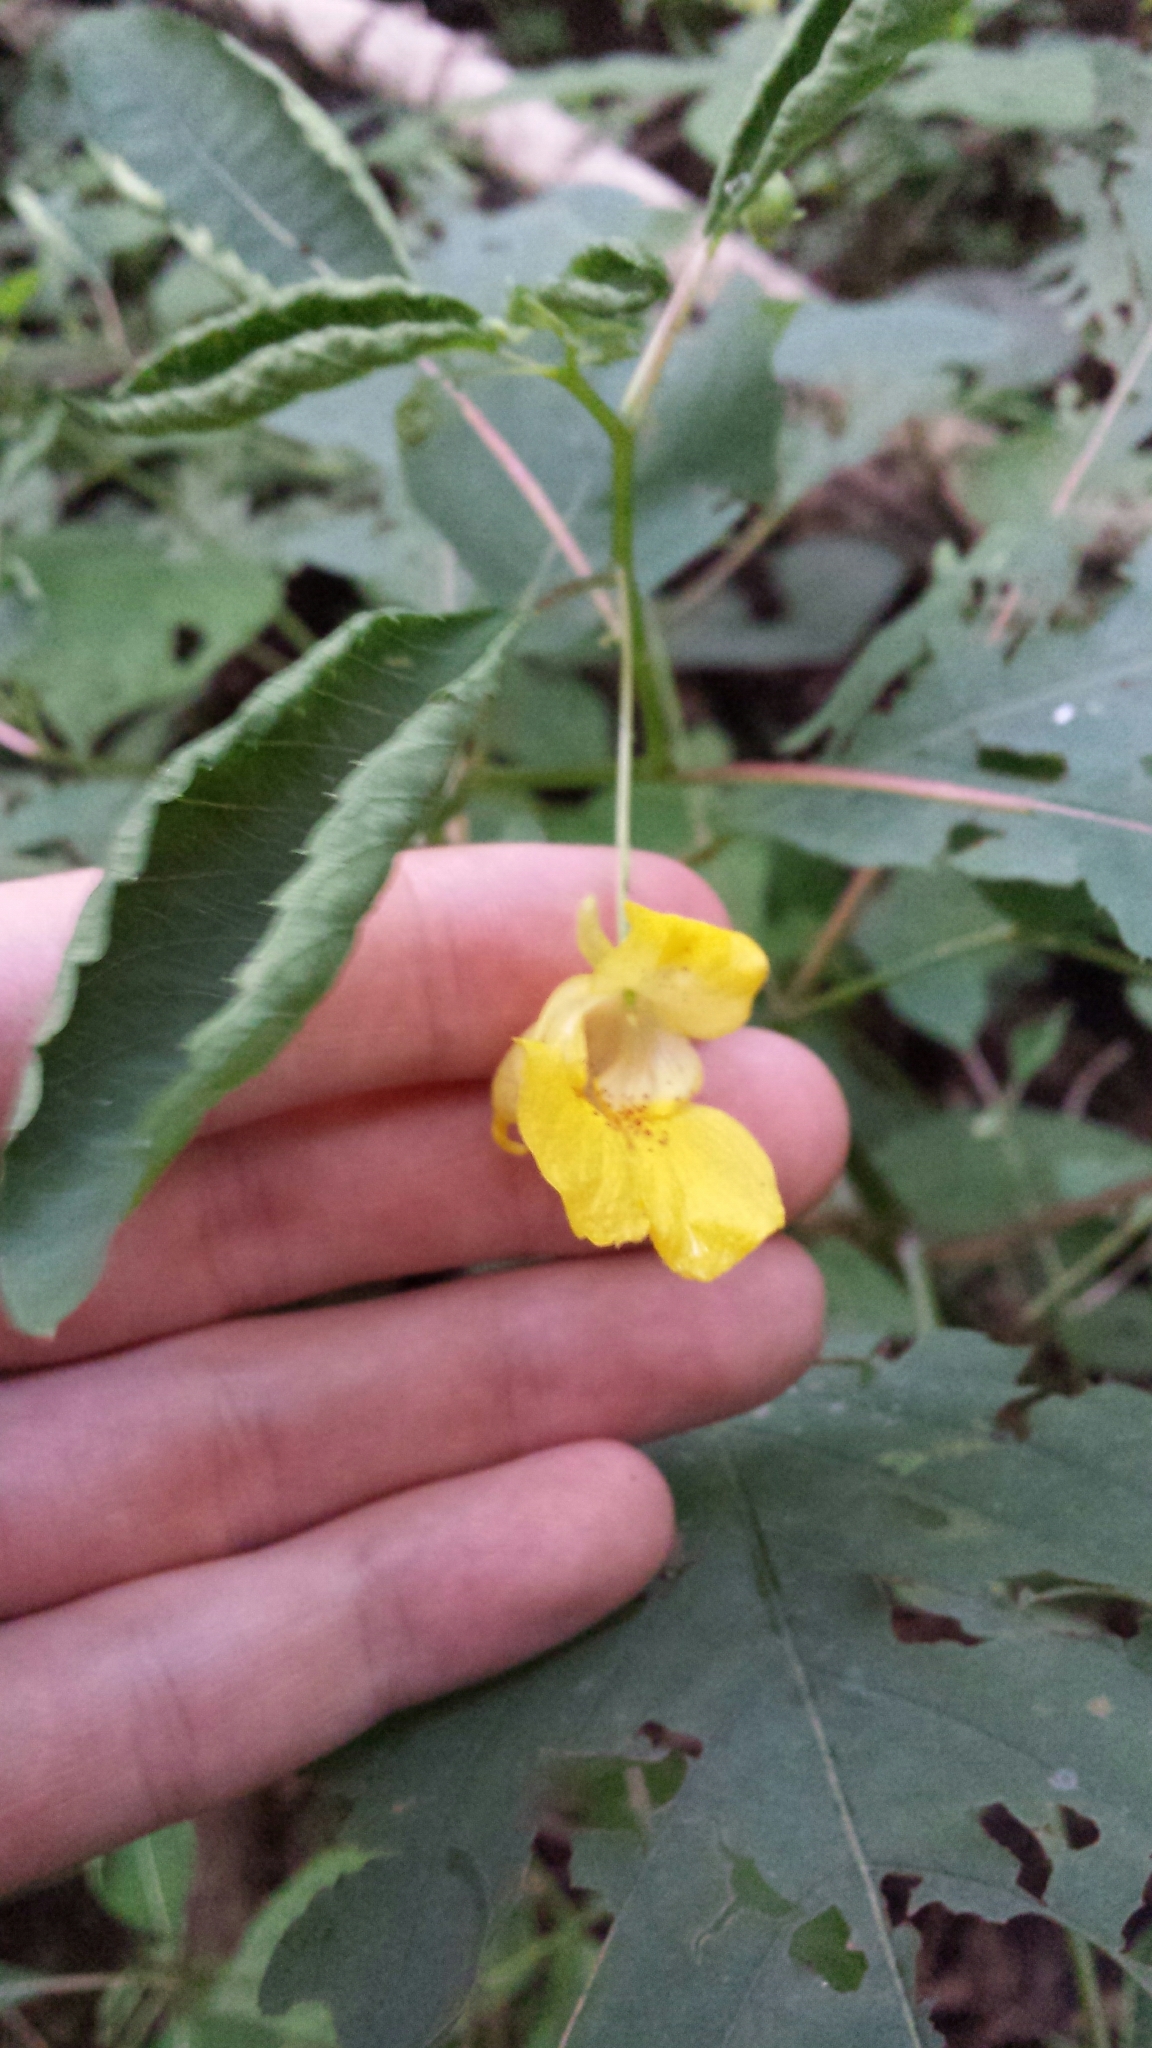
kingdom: Plantae
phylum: Tracheophyta
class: Magnoliopsida
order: Ericales
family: Balsaminaceae
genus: Impatiens
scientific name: Impatiens pallida
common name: Pale snapweed
